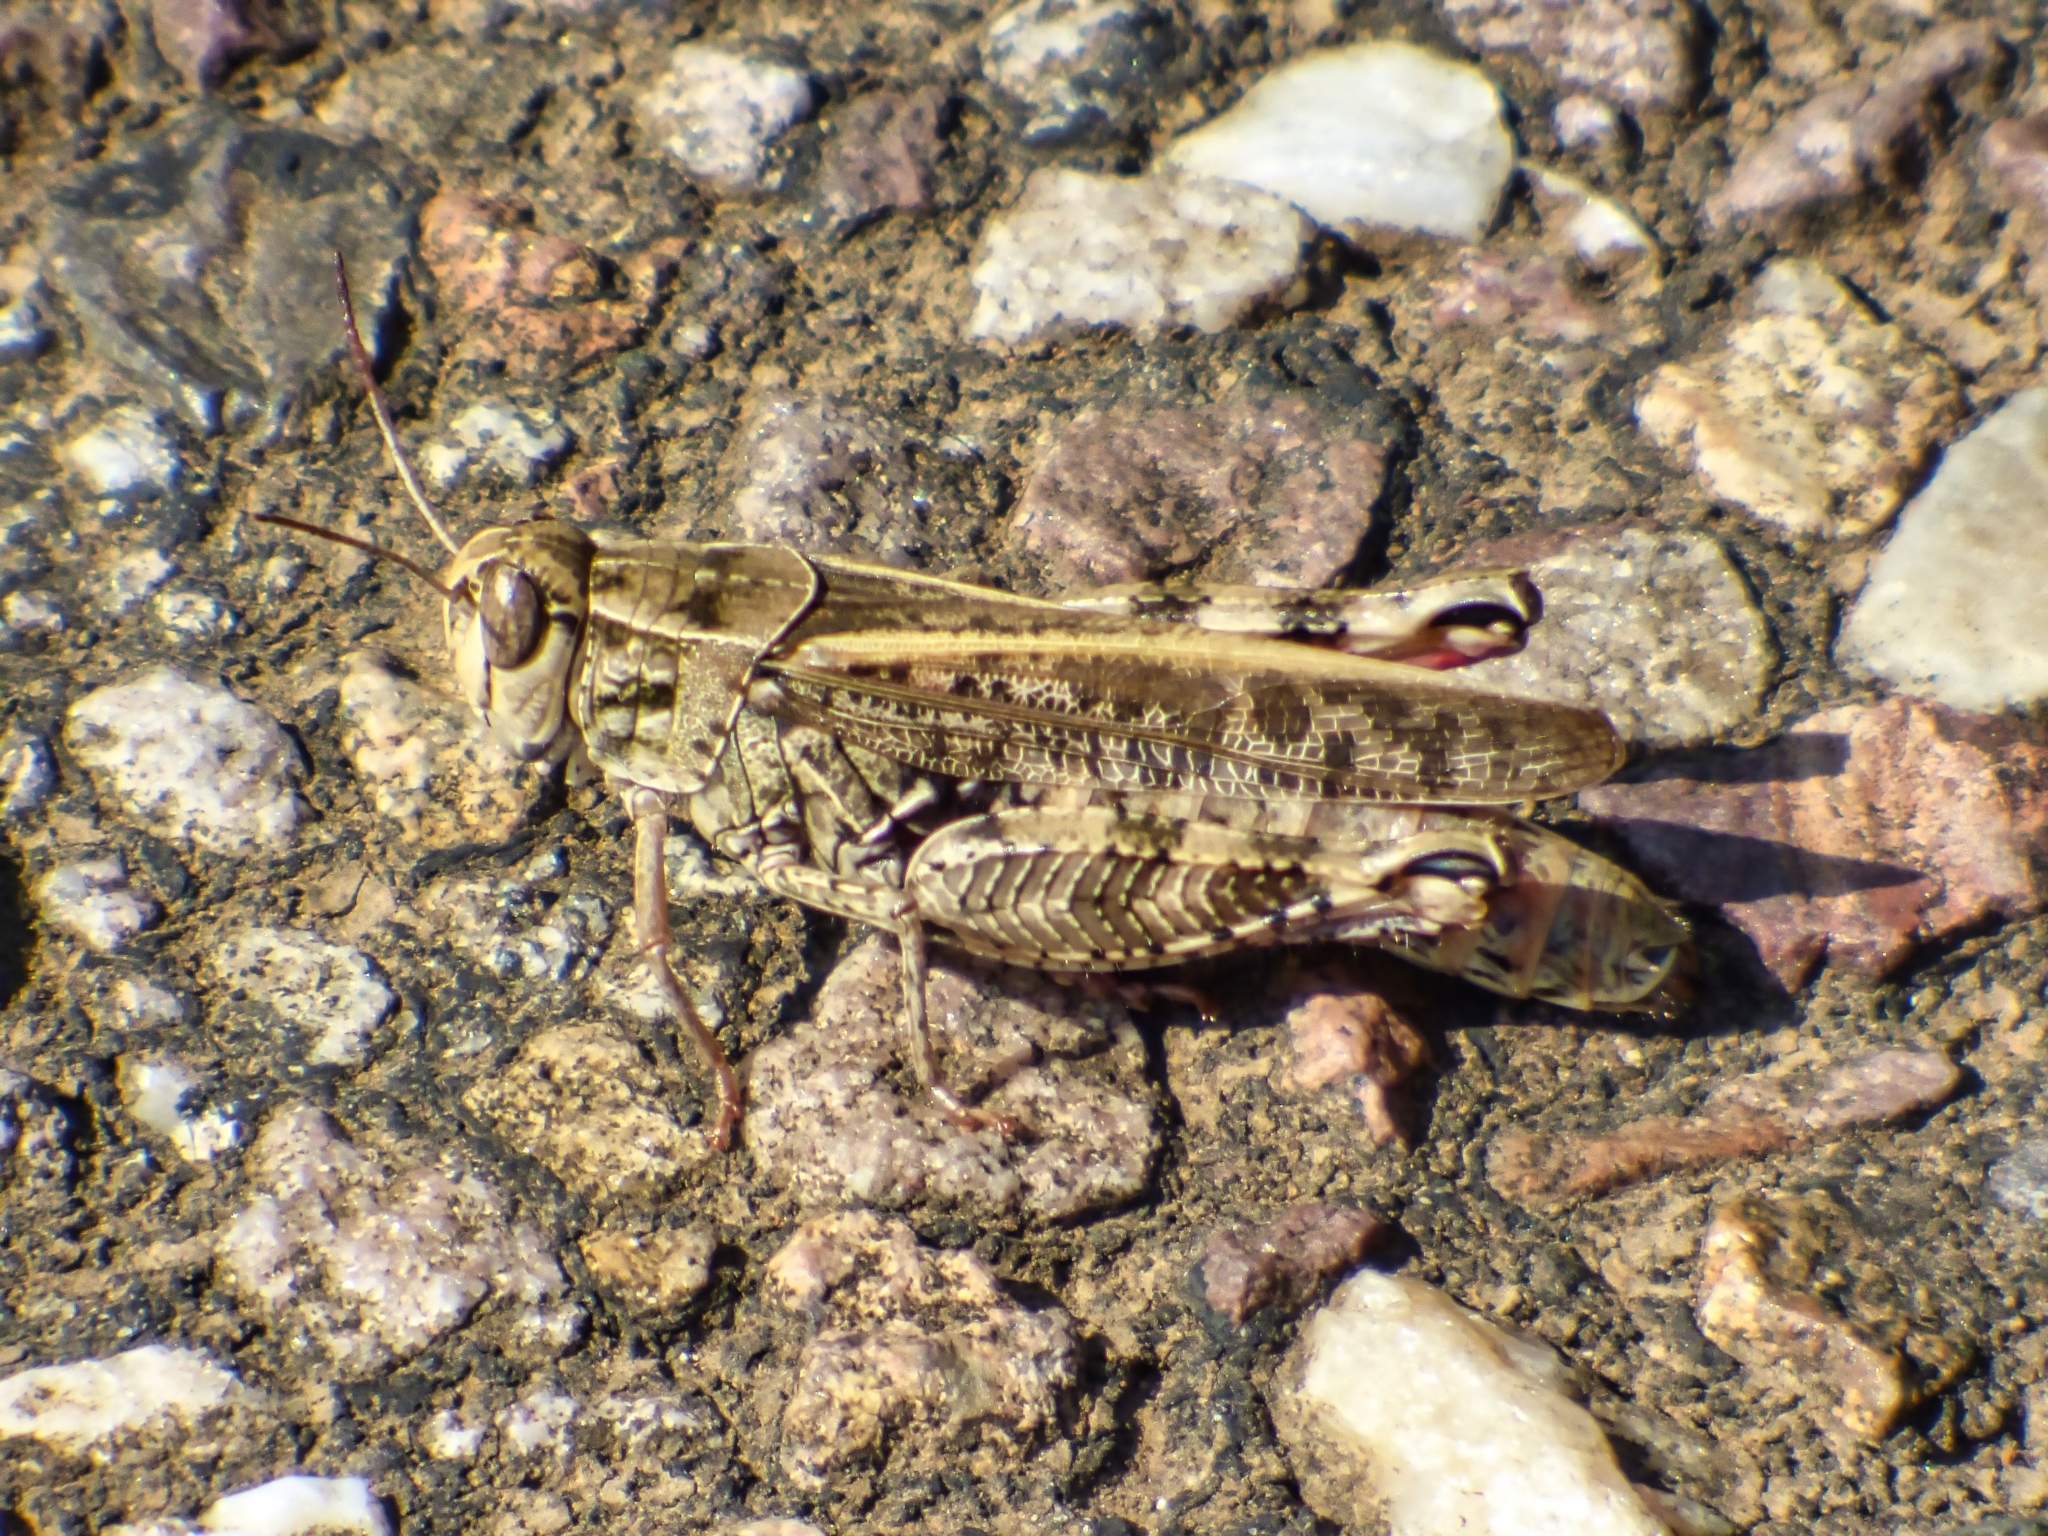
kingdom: Animalia
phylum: Arthropoda
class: Insecta
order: Orthoptera
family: Acrididae
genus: Calliptamus
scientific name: Calliptamus italicus
